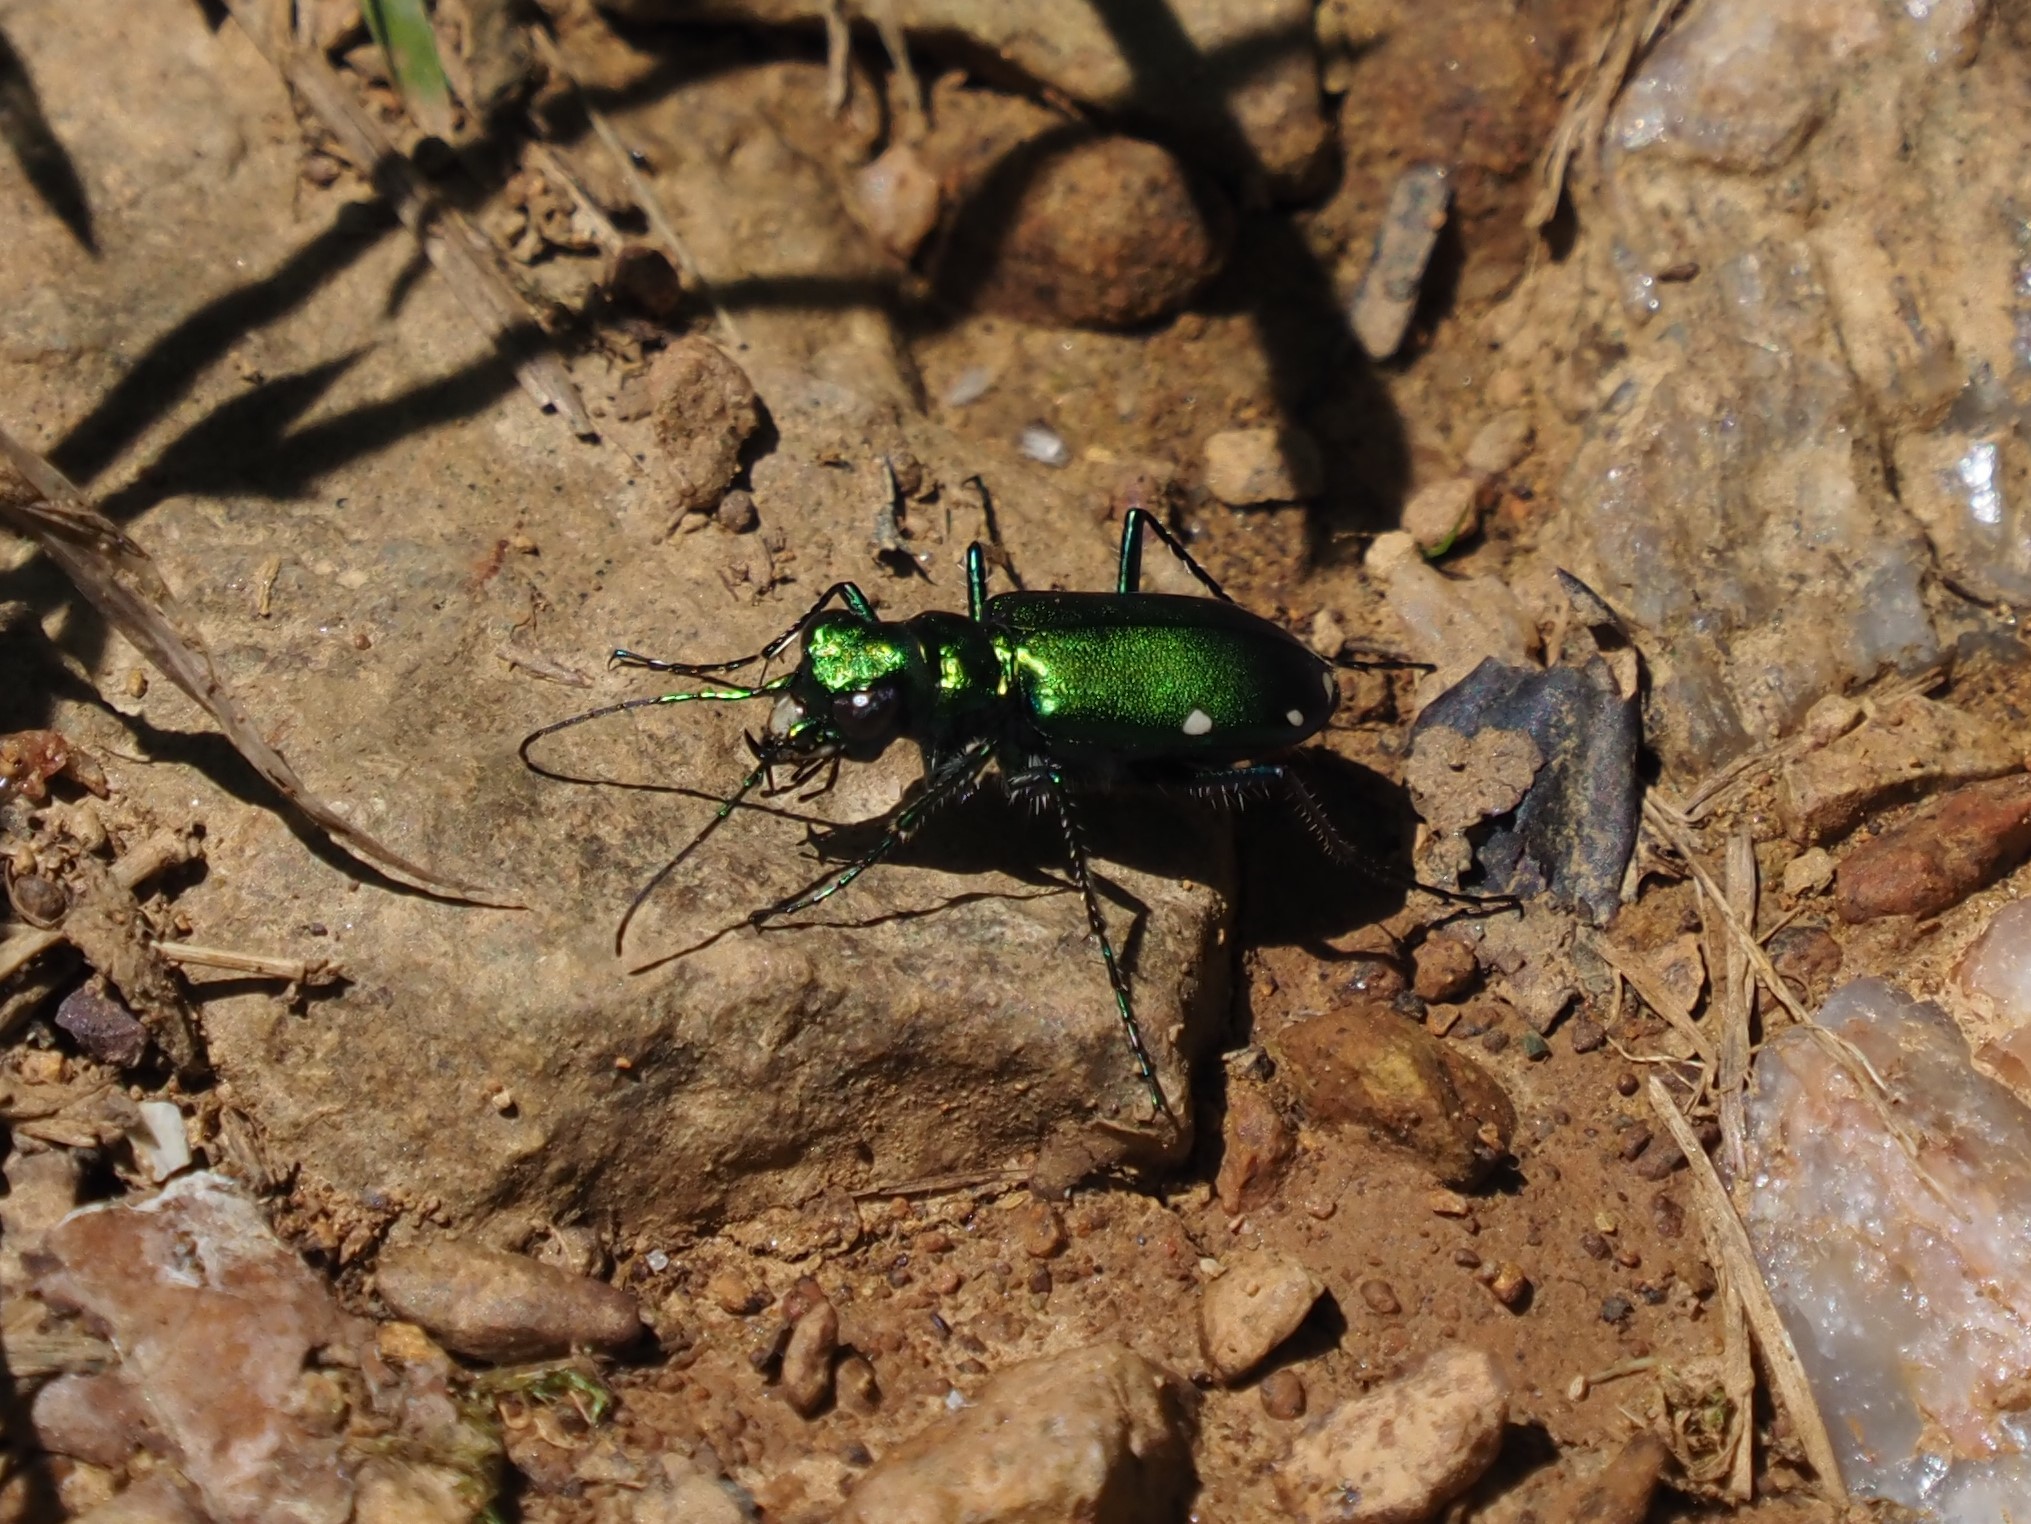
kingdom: Animalia
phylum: Arthropoda
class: Insecta
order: Coleoptera
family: Carabidae
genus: Cicindela
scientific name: Cicindela sexguttata
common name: Six-spotted tiger beetle
